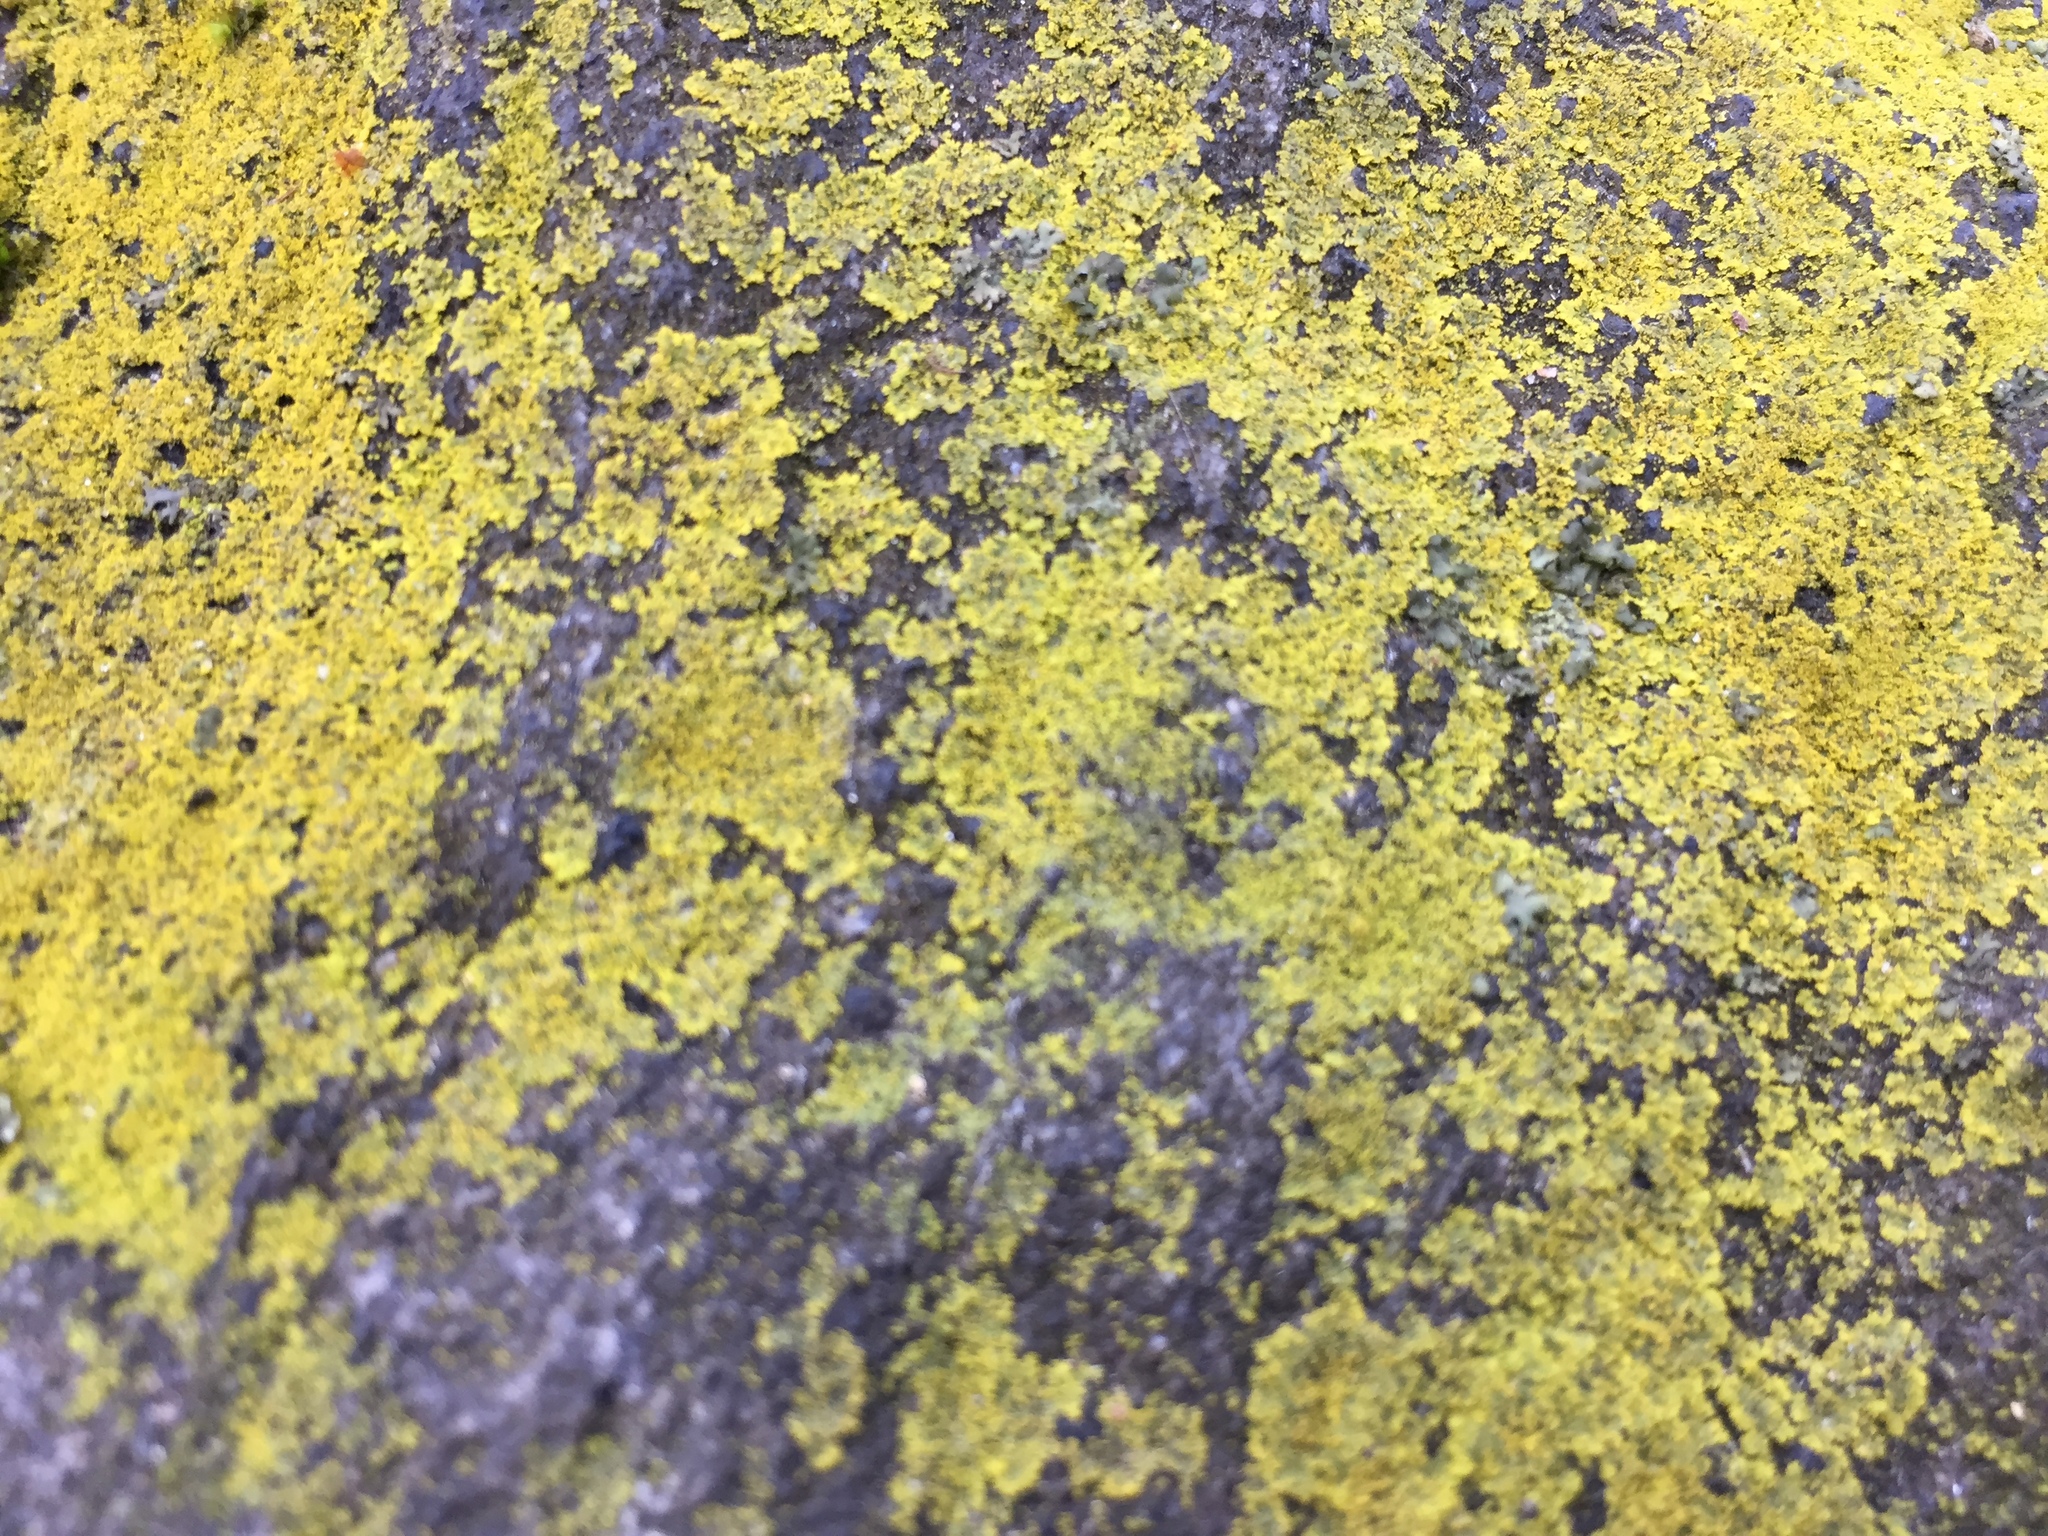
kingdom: Fungi
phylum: Ascomycota
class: Candelariomycetes
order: Candelariales
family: Candelariaceae
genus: Candelaria
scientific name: Candelaria concolor
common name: Candleflame lichen
